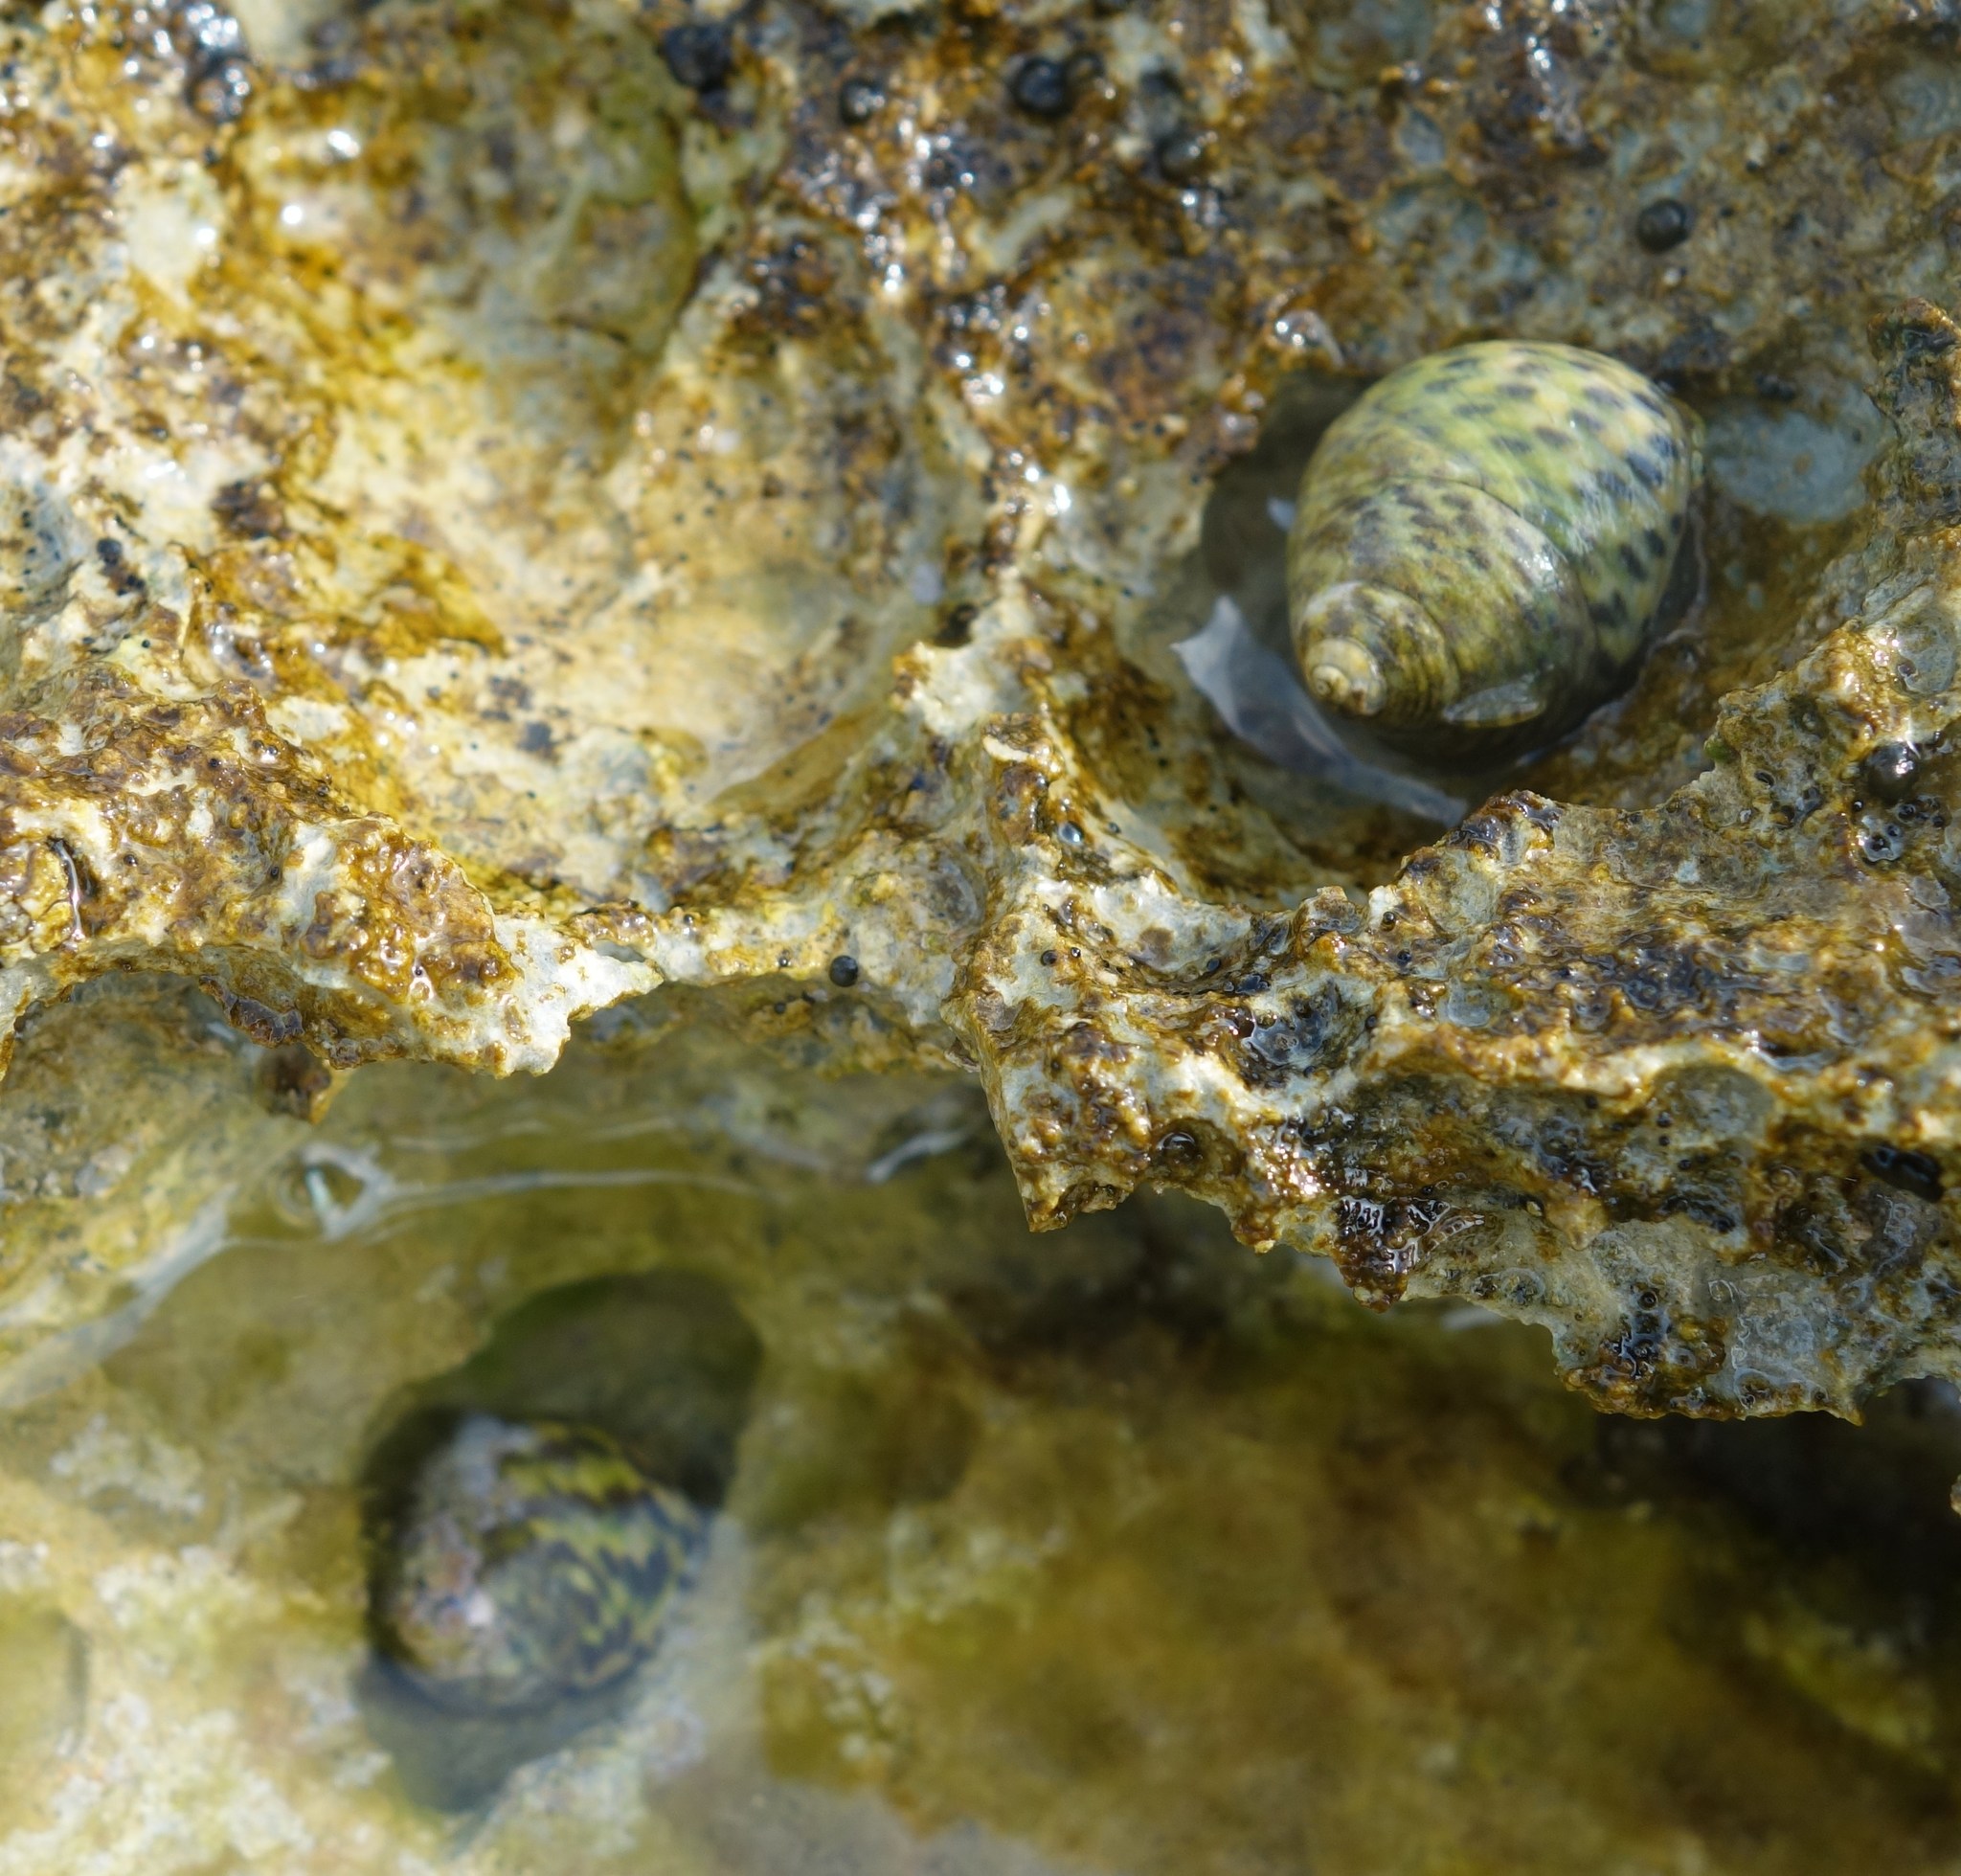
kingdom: Animalia
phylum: Mollusca
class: Gastropoda
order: Trochida
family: Trochidae
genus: Phorcus
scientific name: Phorcus turbinatus
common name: Turbinate monodont
